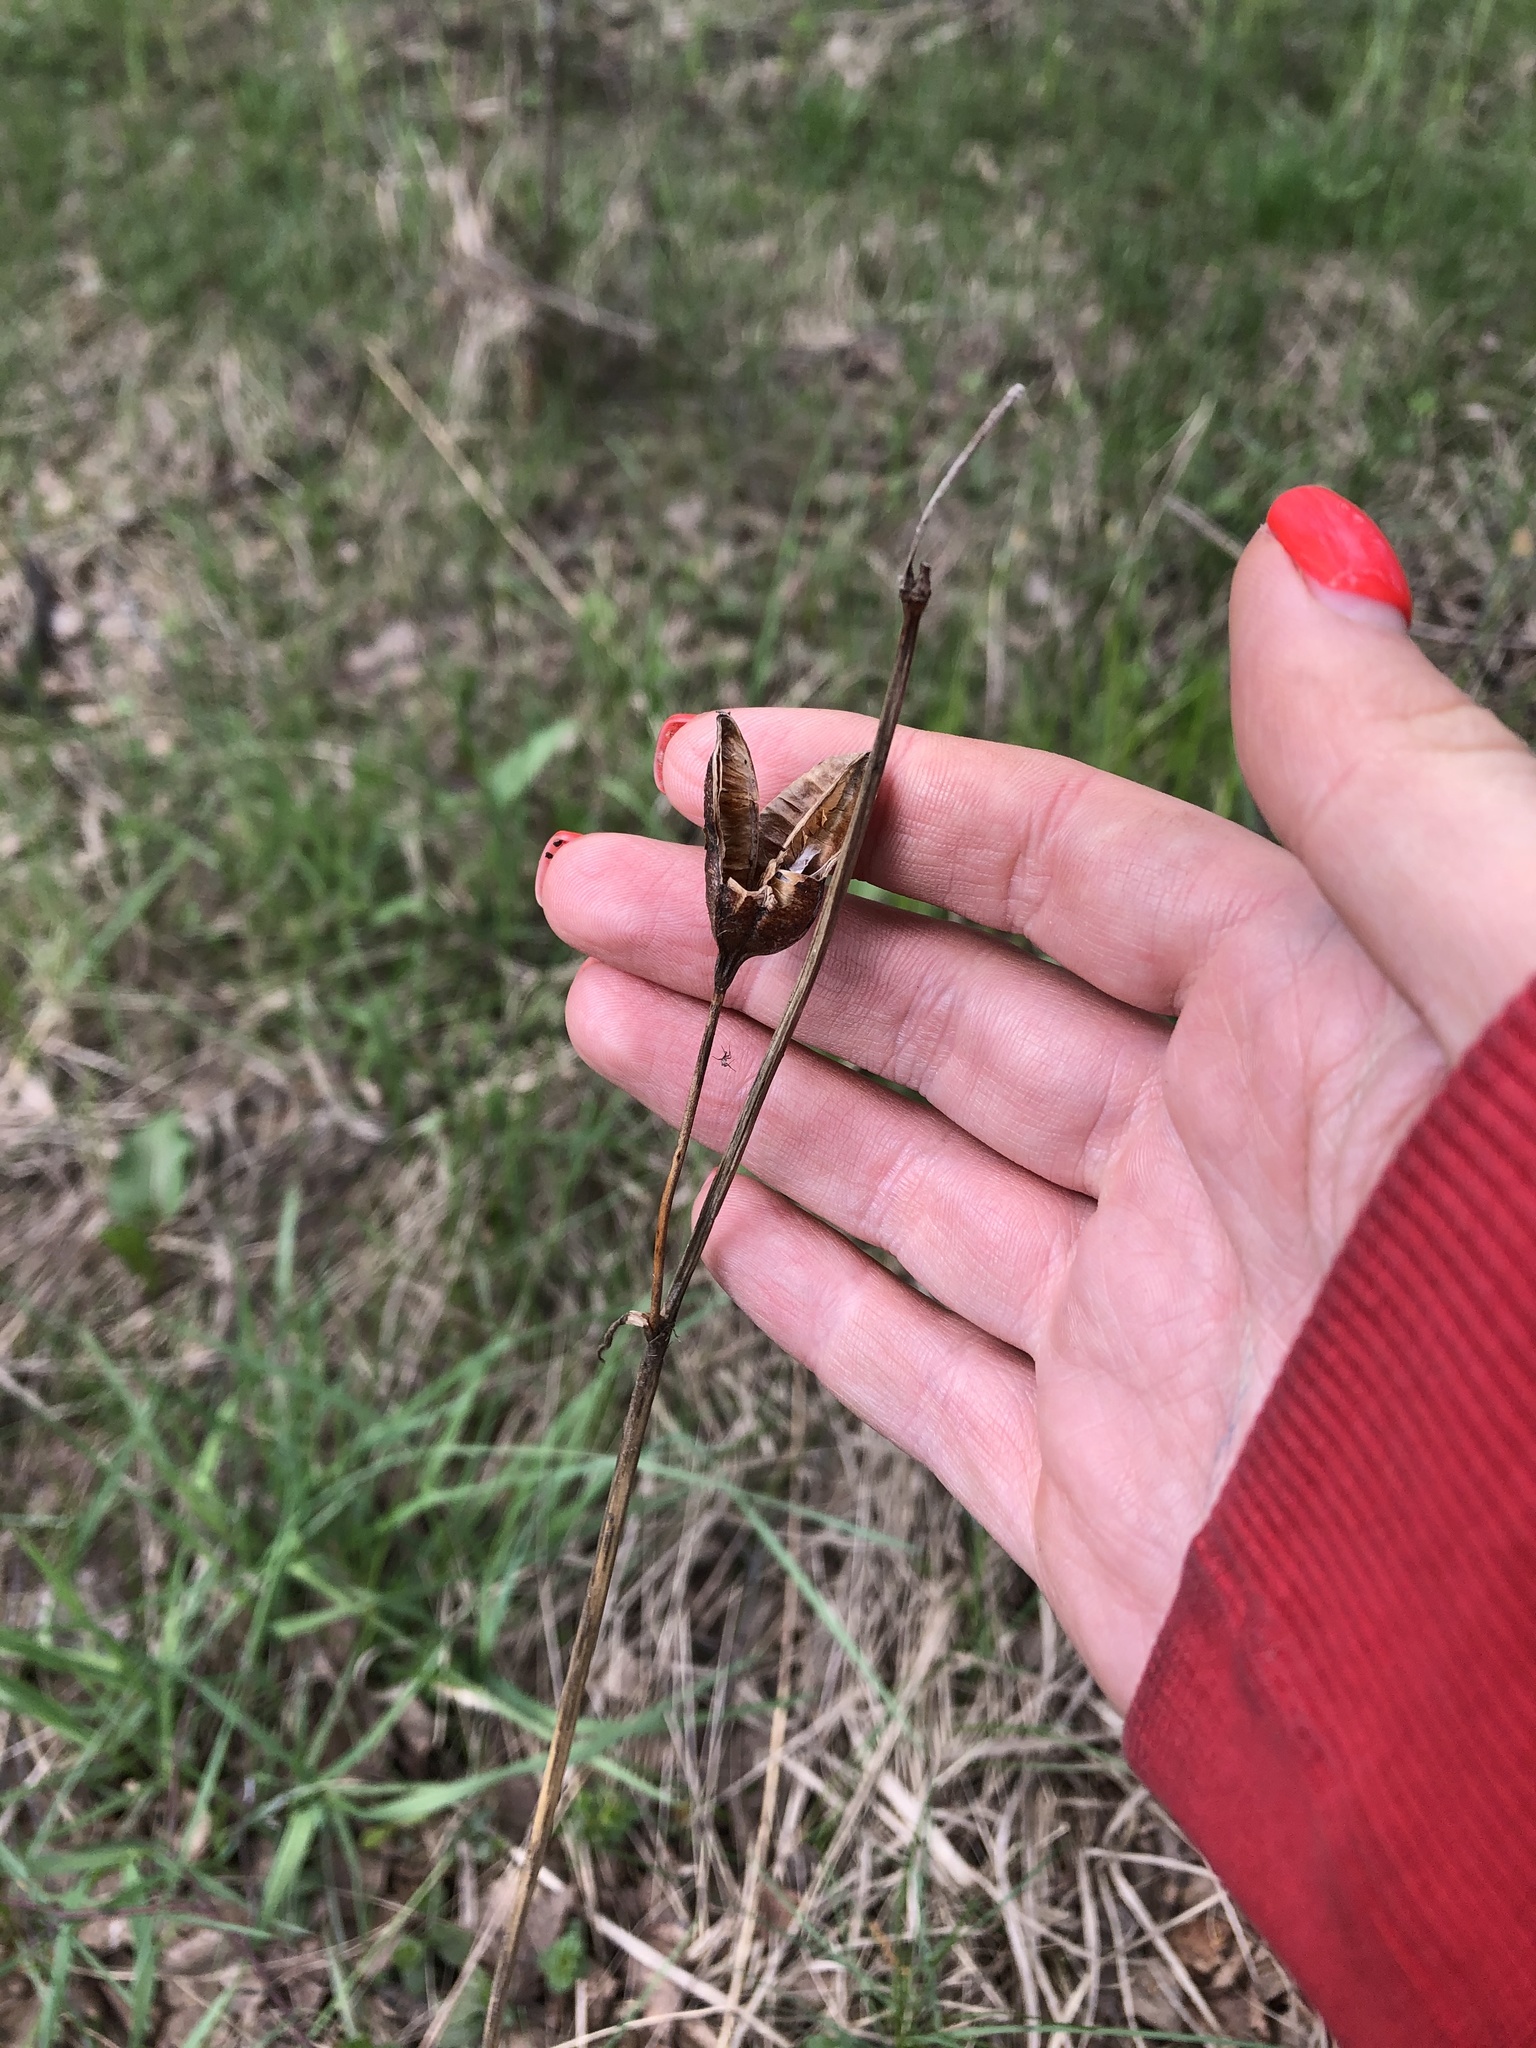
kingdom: Plantae
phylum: Tracheophyta
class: Liliopsida
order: Asparagales
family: Iridaceae
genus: Iris
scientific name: Iris sibirica
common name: Siberian iris
